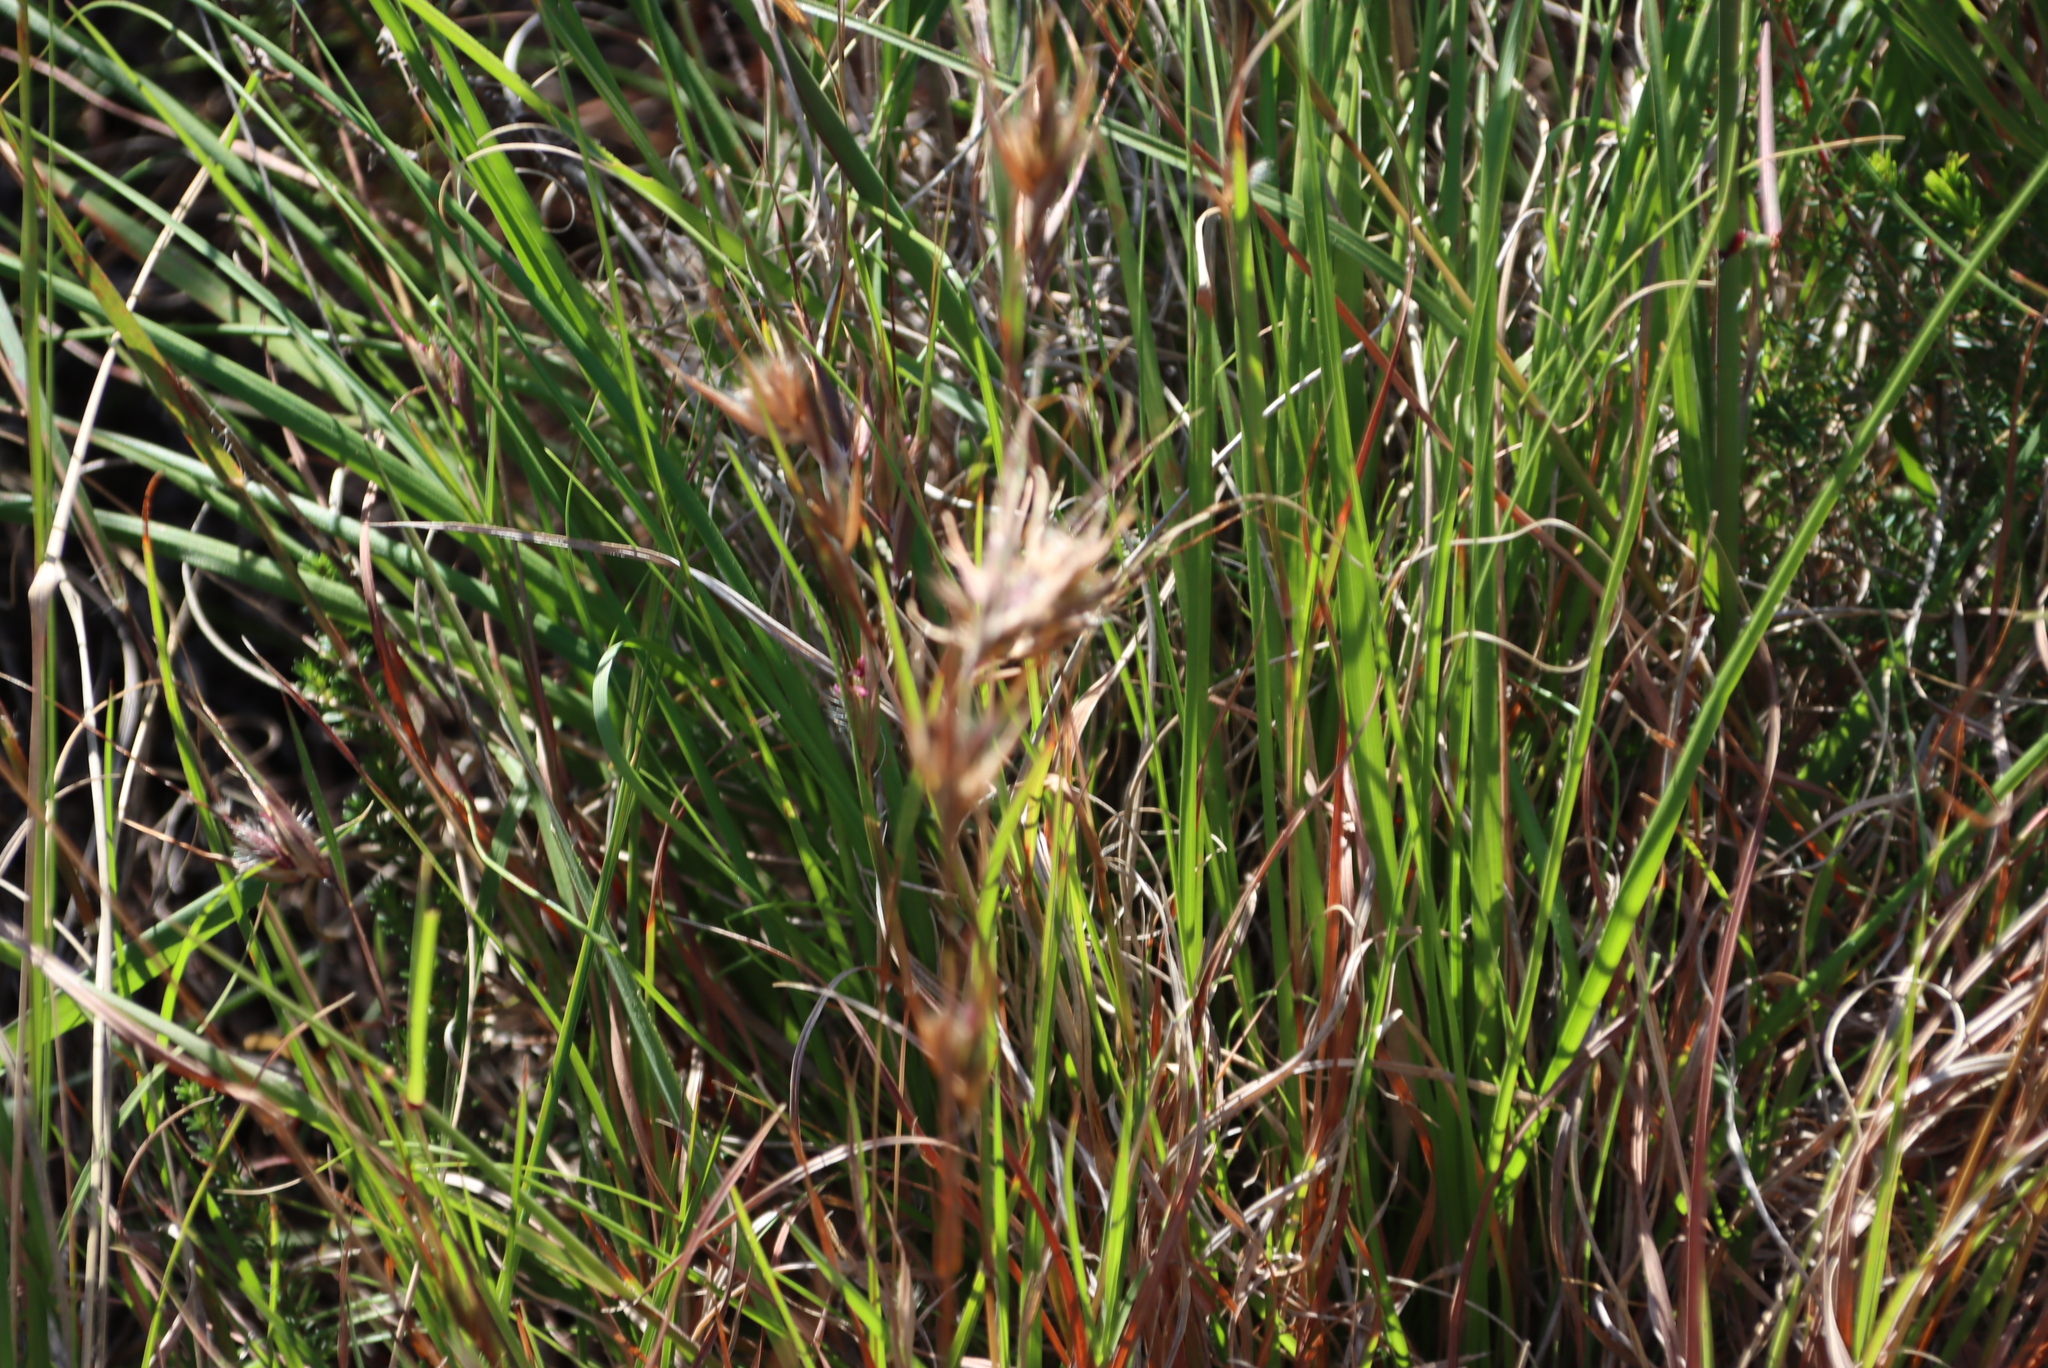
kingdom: Plantae
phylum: Tracheophyta
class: Liliopsida
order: Poales
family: Poaceae
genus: Themeda
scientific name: Themeda triandra
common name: Kangaroo grass
